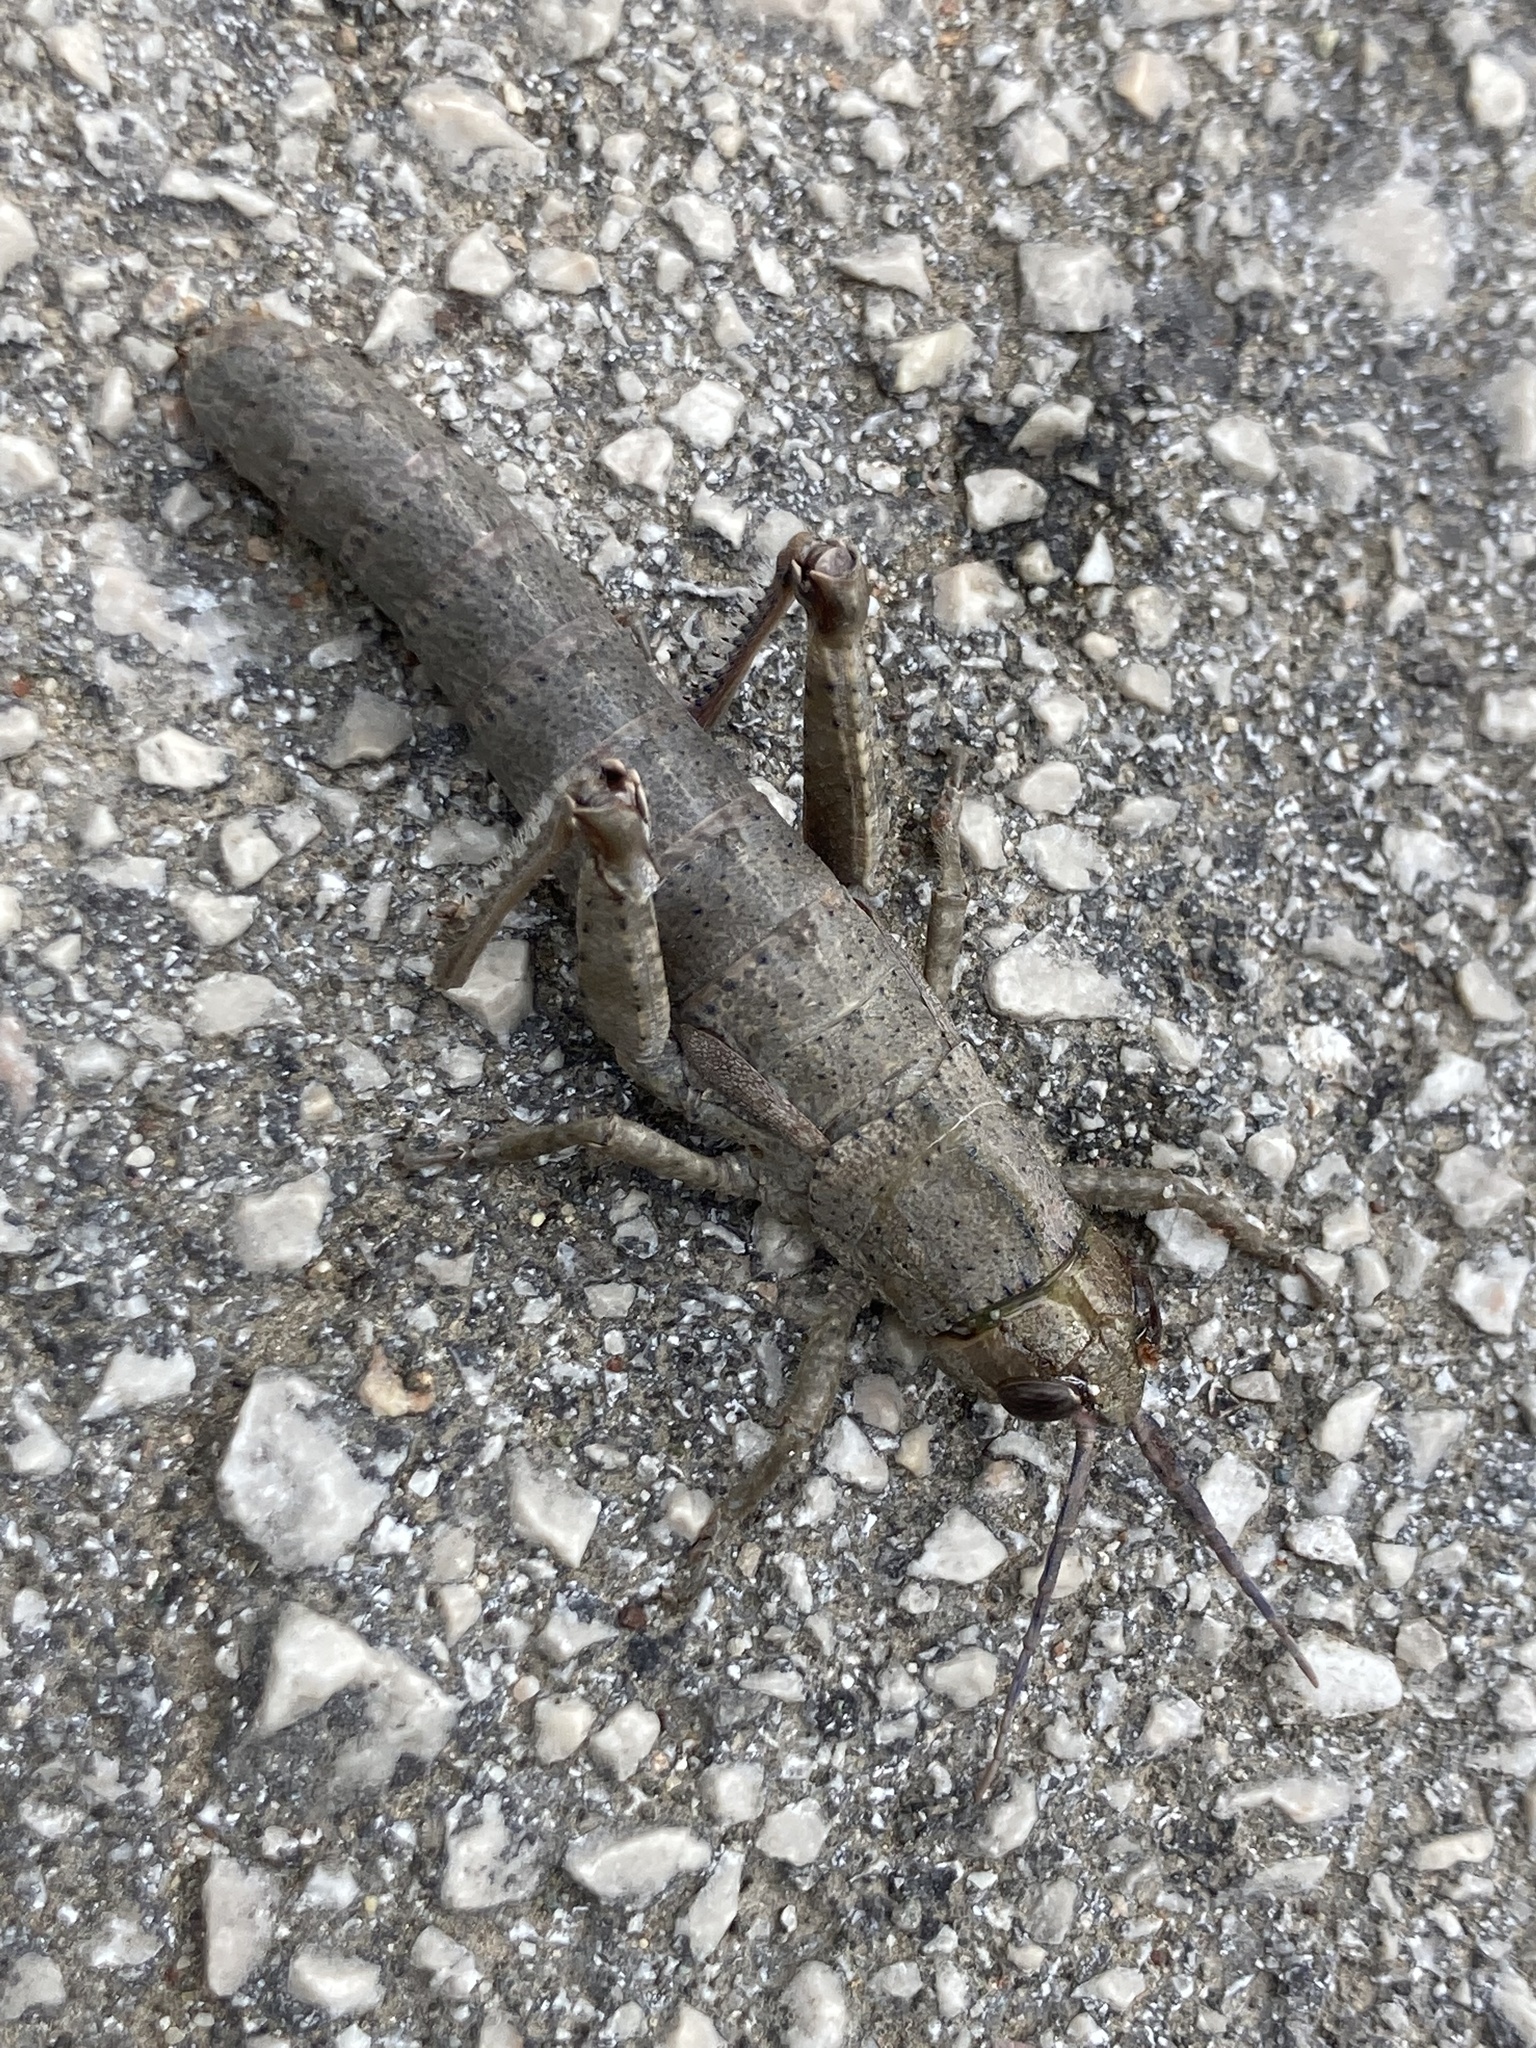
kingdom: Animalia
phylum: Arthropoda
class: Insecta
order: Orthoptera
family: Pamphagidae
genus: Orchamus
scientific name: Orchamus yersini
